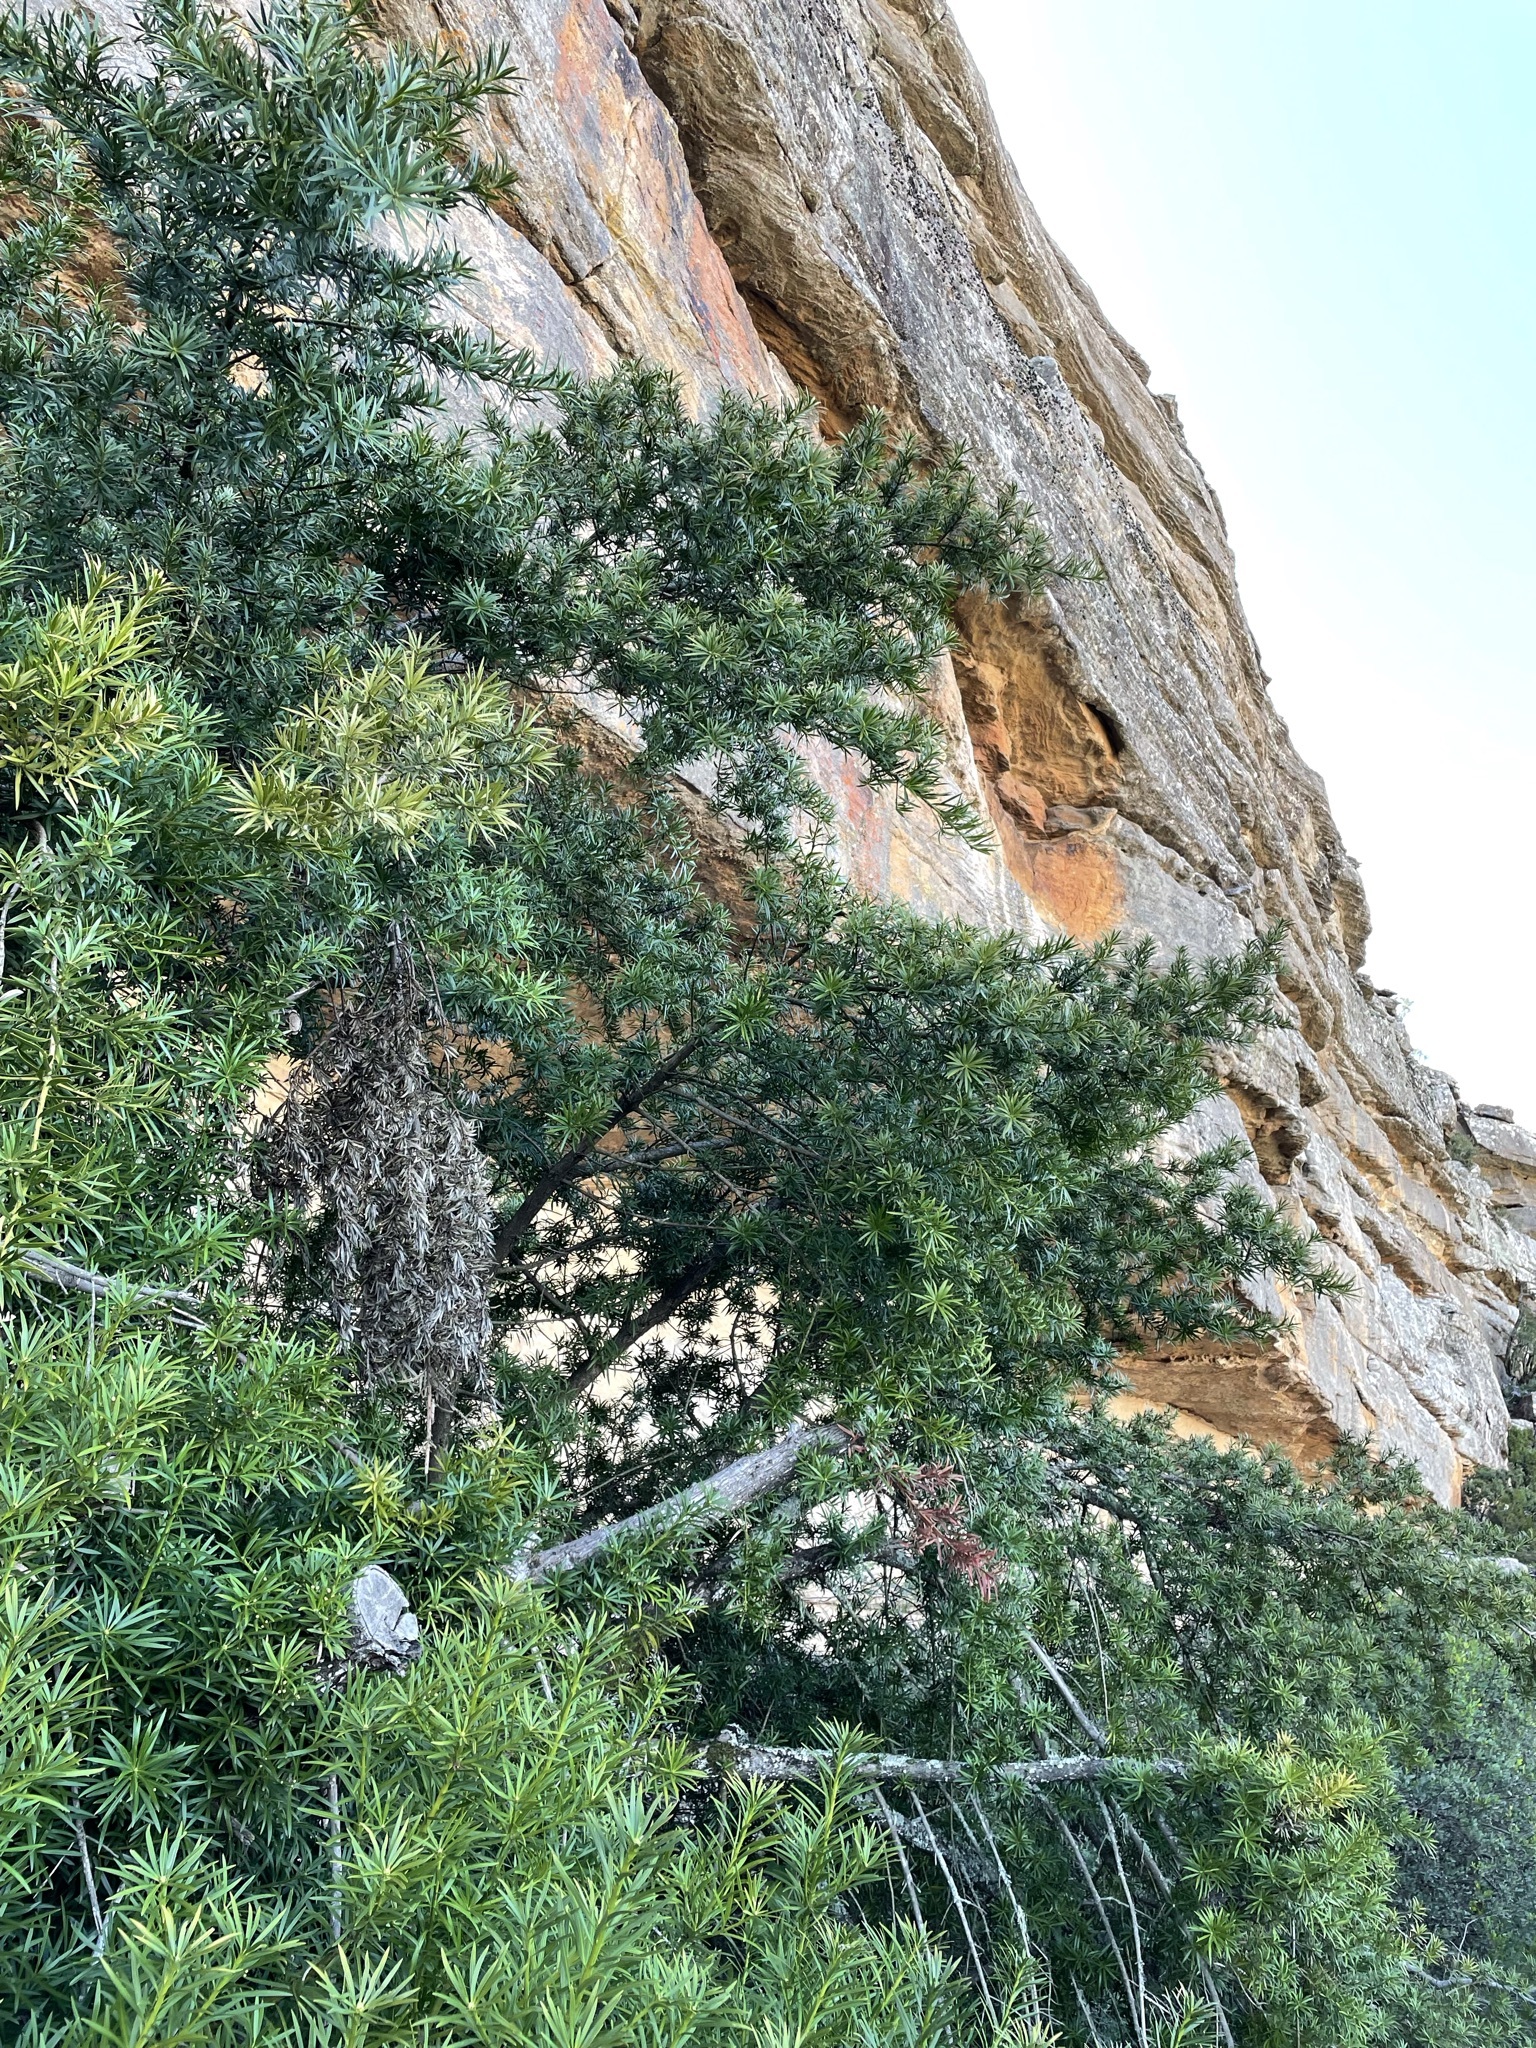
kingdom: Plantae
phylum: Tracheophyta
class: Pinopsida
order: Pinales
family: Podocarpaceae
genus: Podocarpus
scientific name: Podocarpus elongatus
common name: Breede river yellowwood
